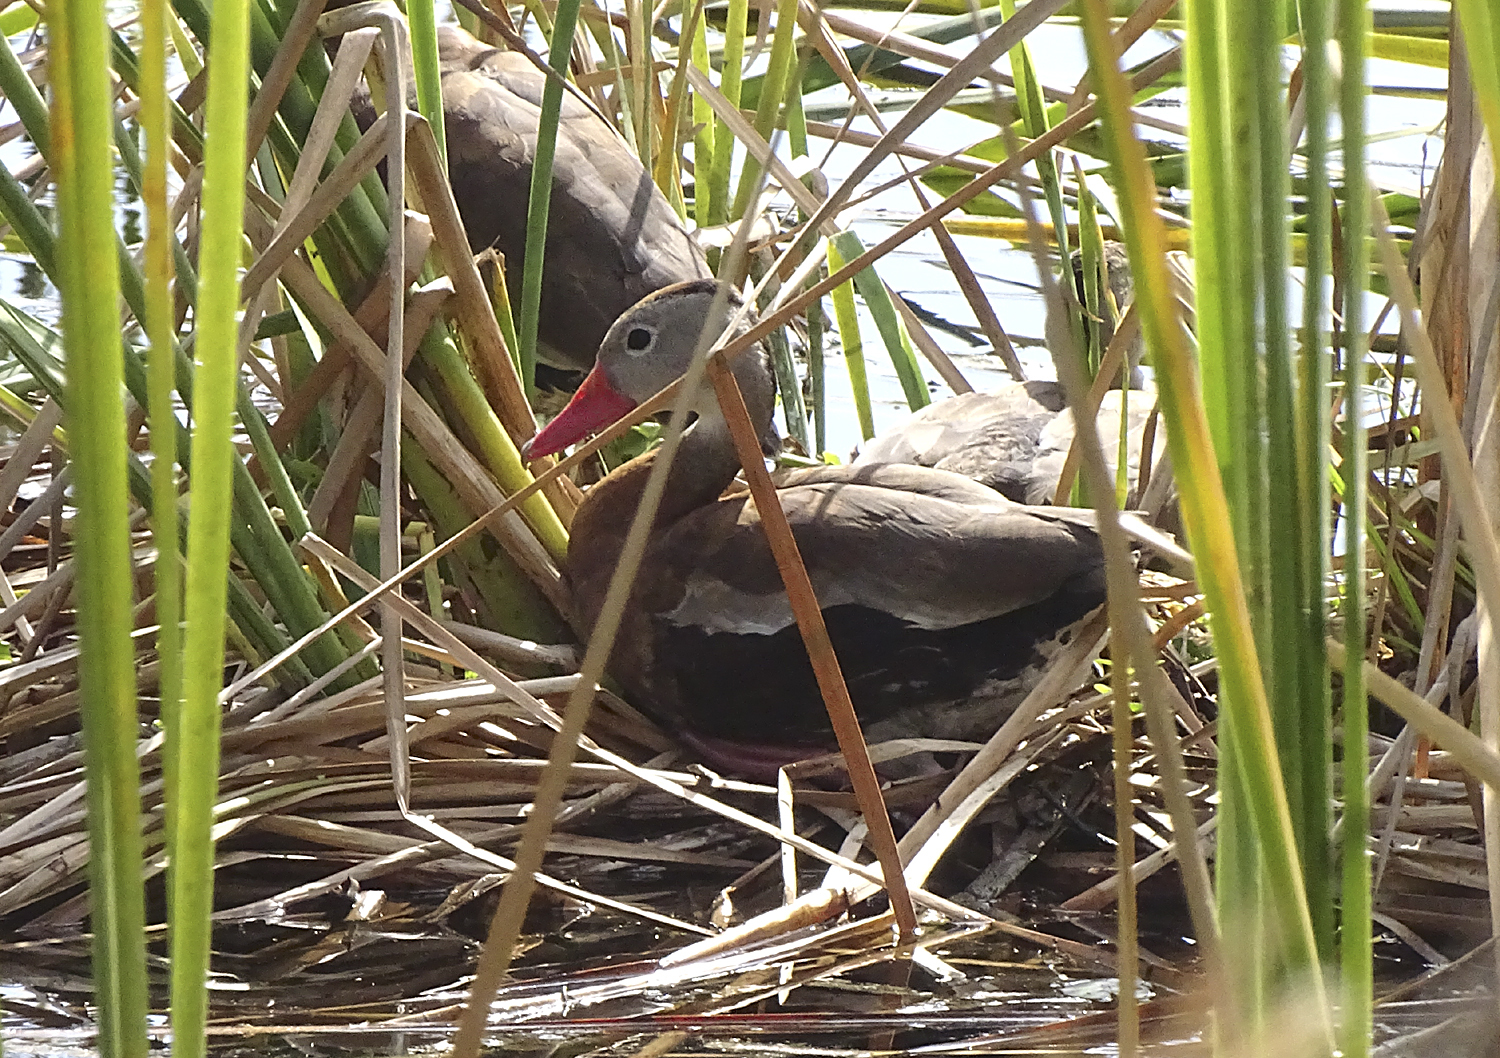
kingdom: Animalia
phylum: Chordata
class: Aves
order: Anseriformes
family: Anatidae
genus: Dendrocygna
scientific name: Dendrocygna autumnalis
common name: Black-bellied whistling duck
